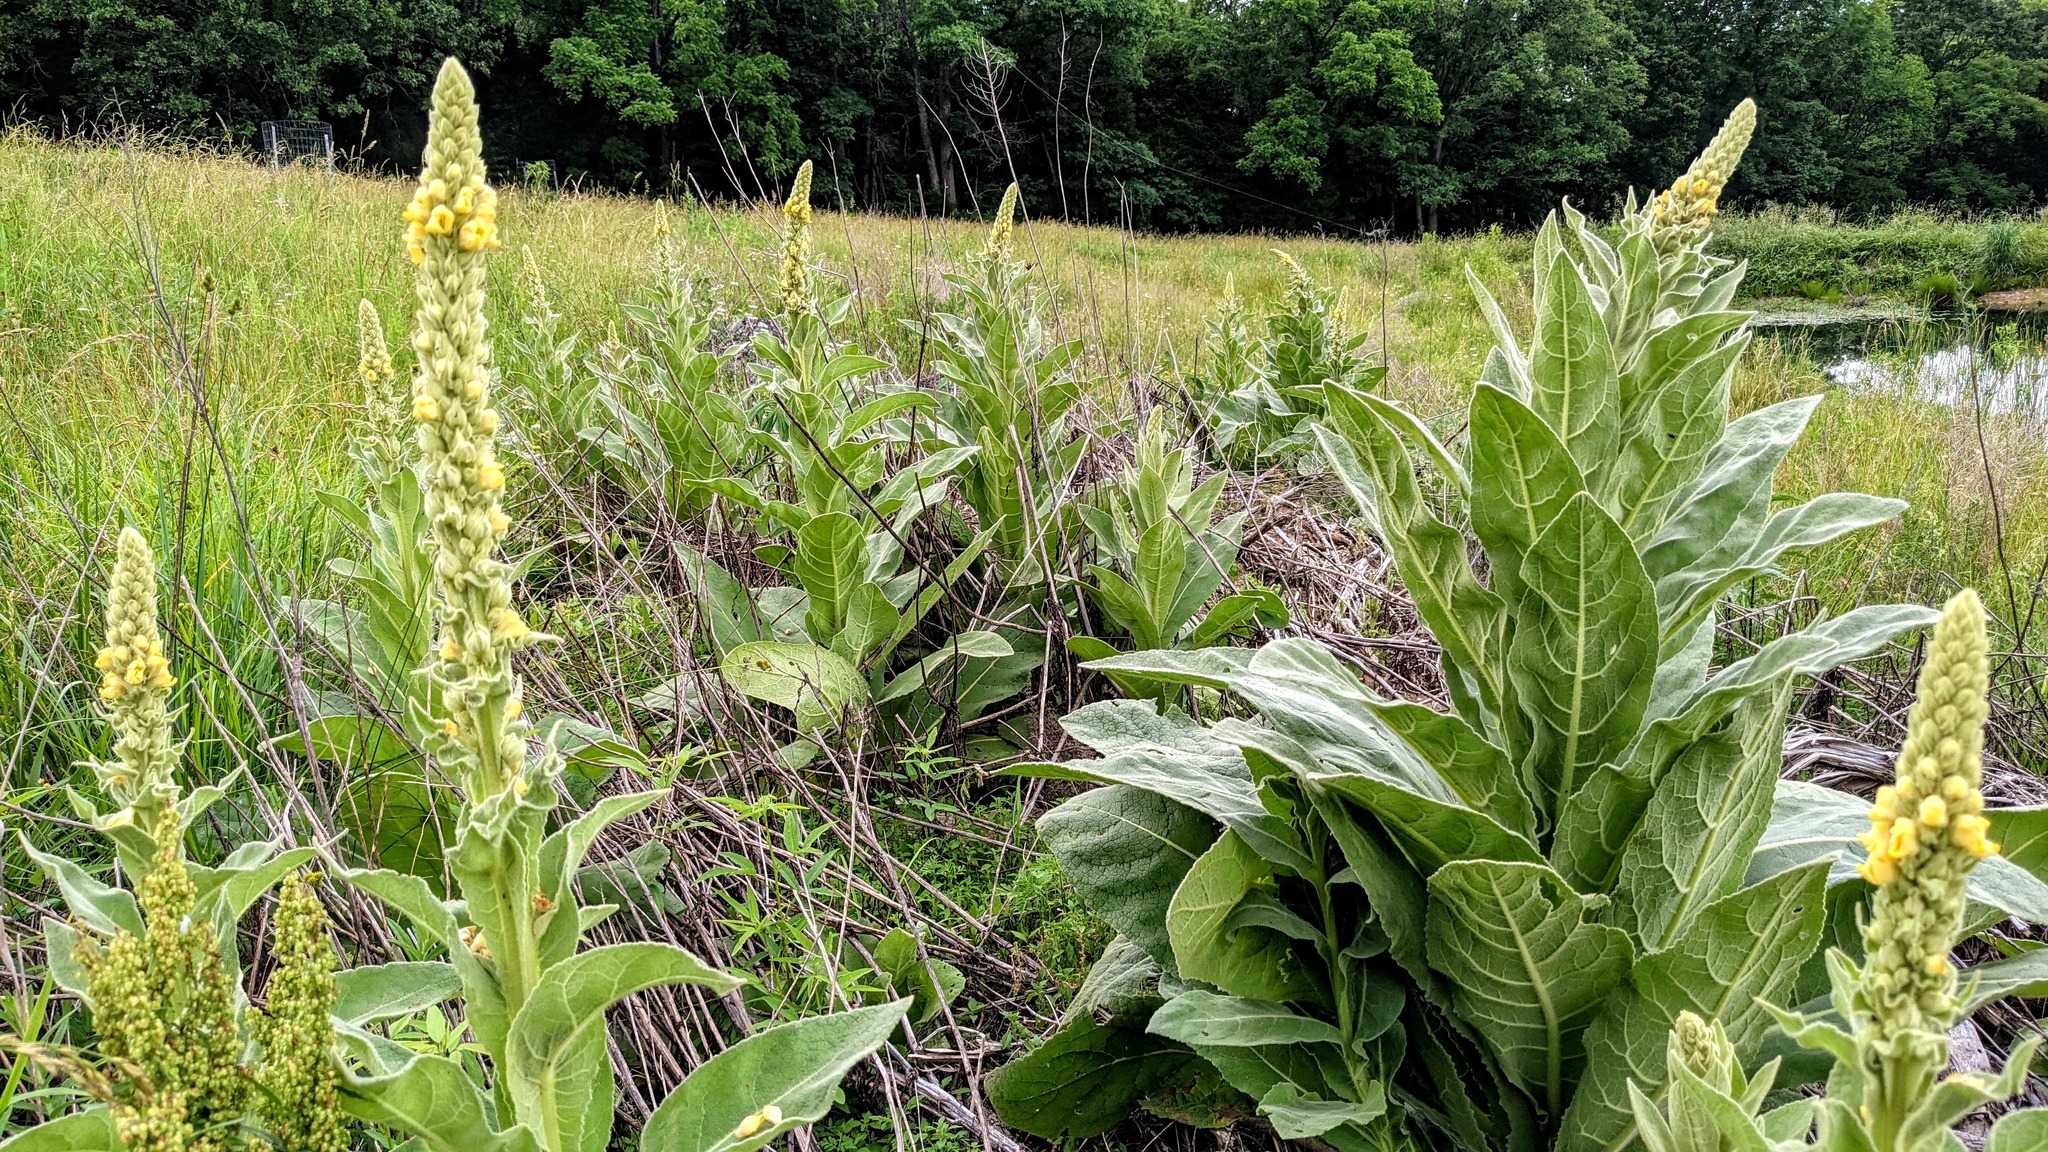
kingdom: Plantae
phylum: Tracheophyta
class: Magnoliopsida
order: Lamiales
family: Scrophulariaceae
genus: Verbascum
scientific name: Verbascum thapsus
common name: Common mullein
